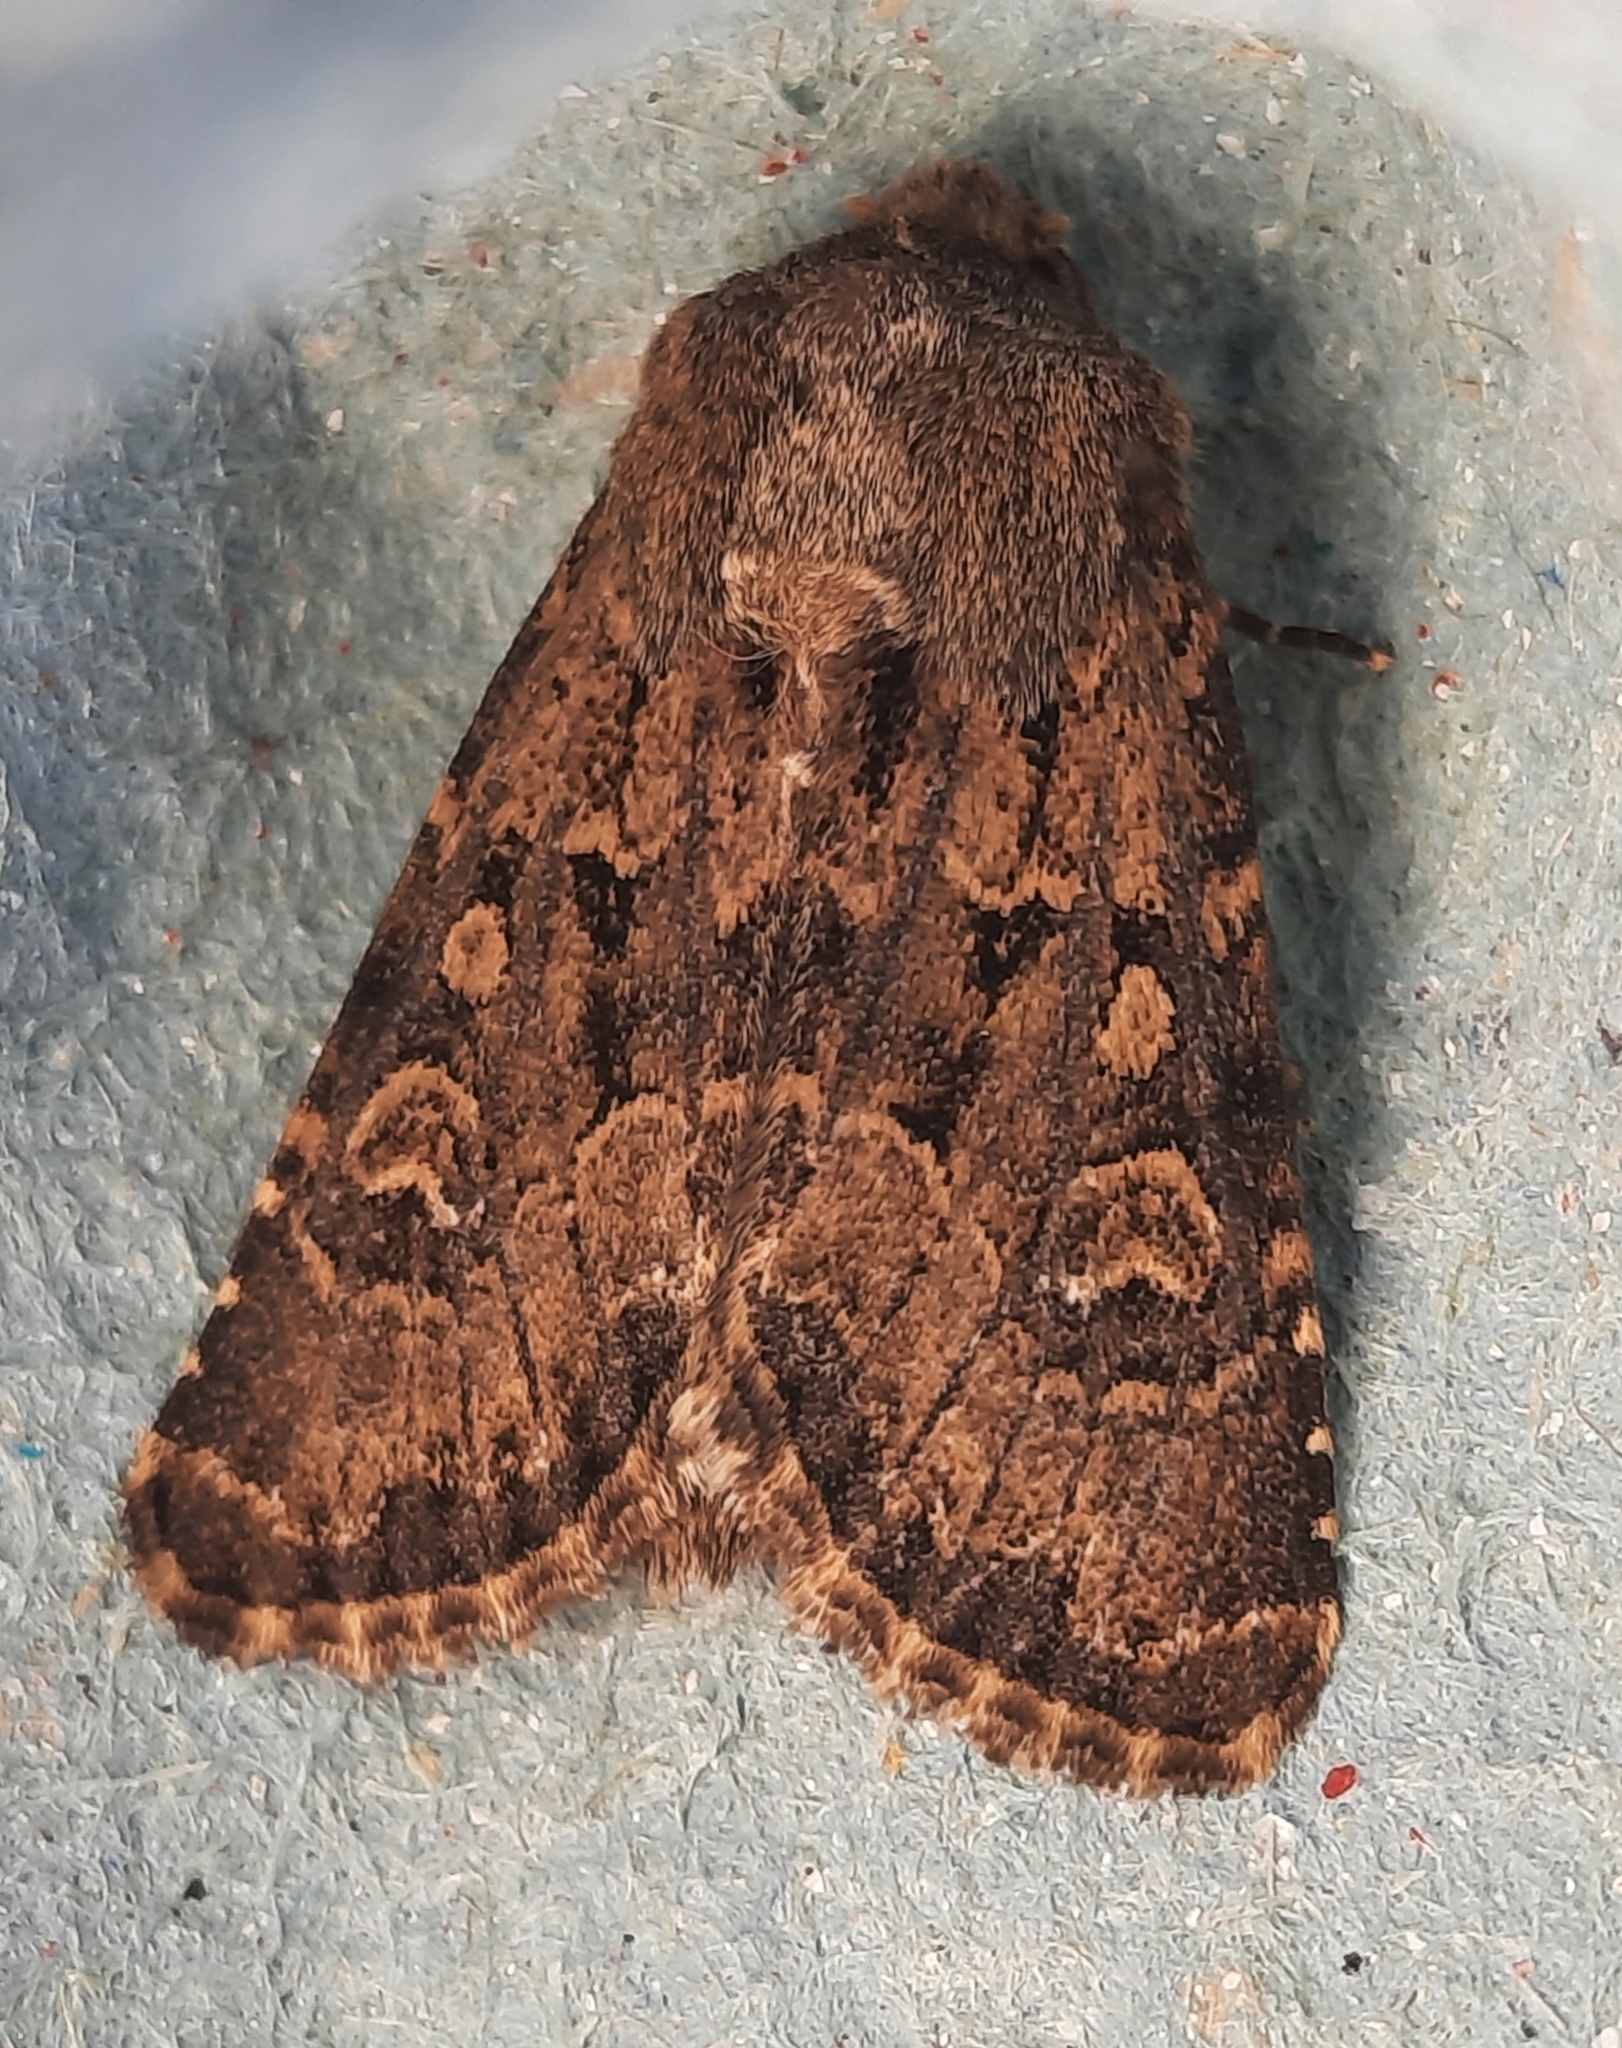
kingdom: Animalia
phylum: Arthropoda
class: Insecta
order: Lepidoptera
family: Noctuidae
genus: Luperina
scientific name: Luperina testacea
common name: Flounced rustic
